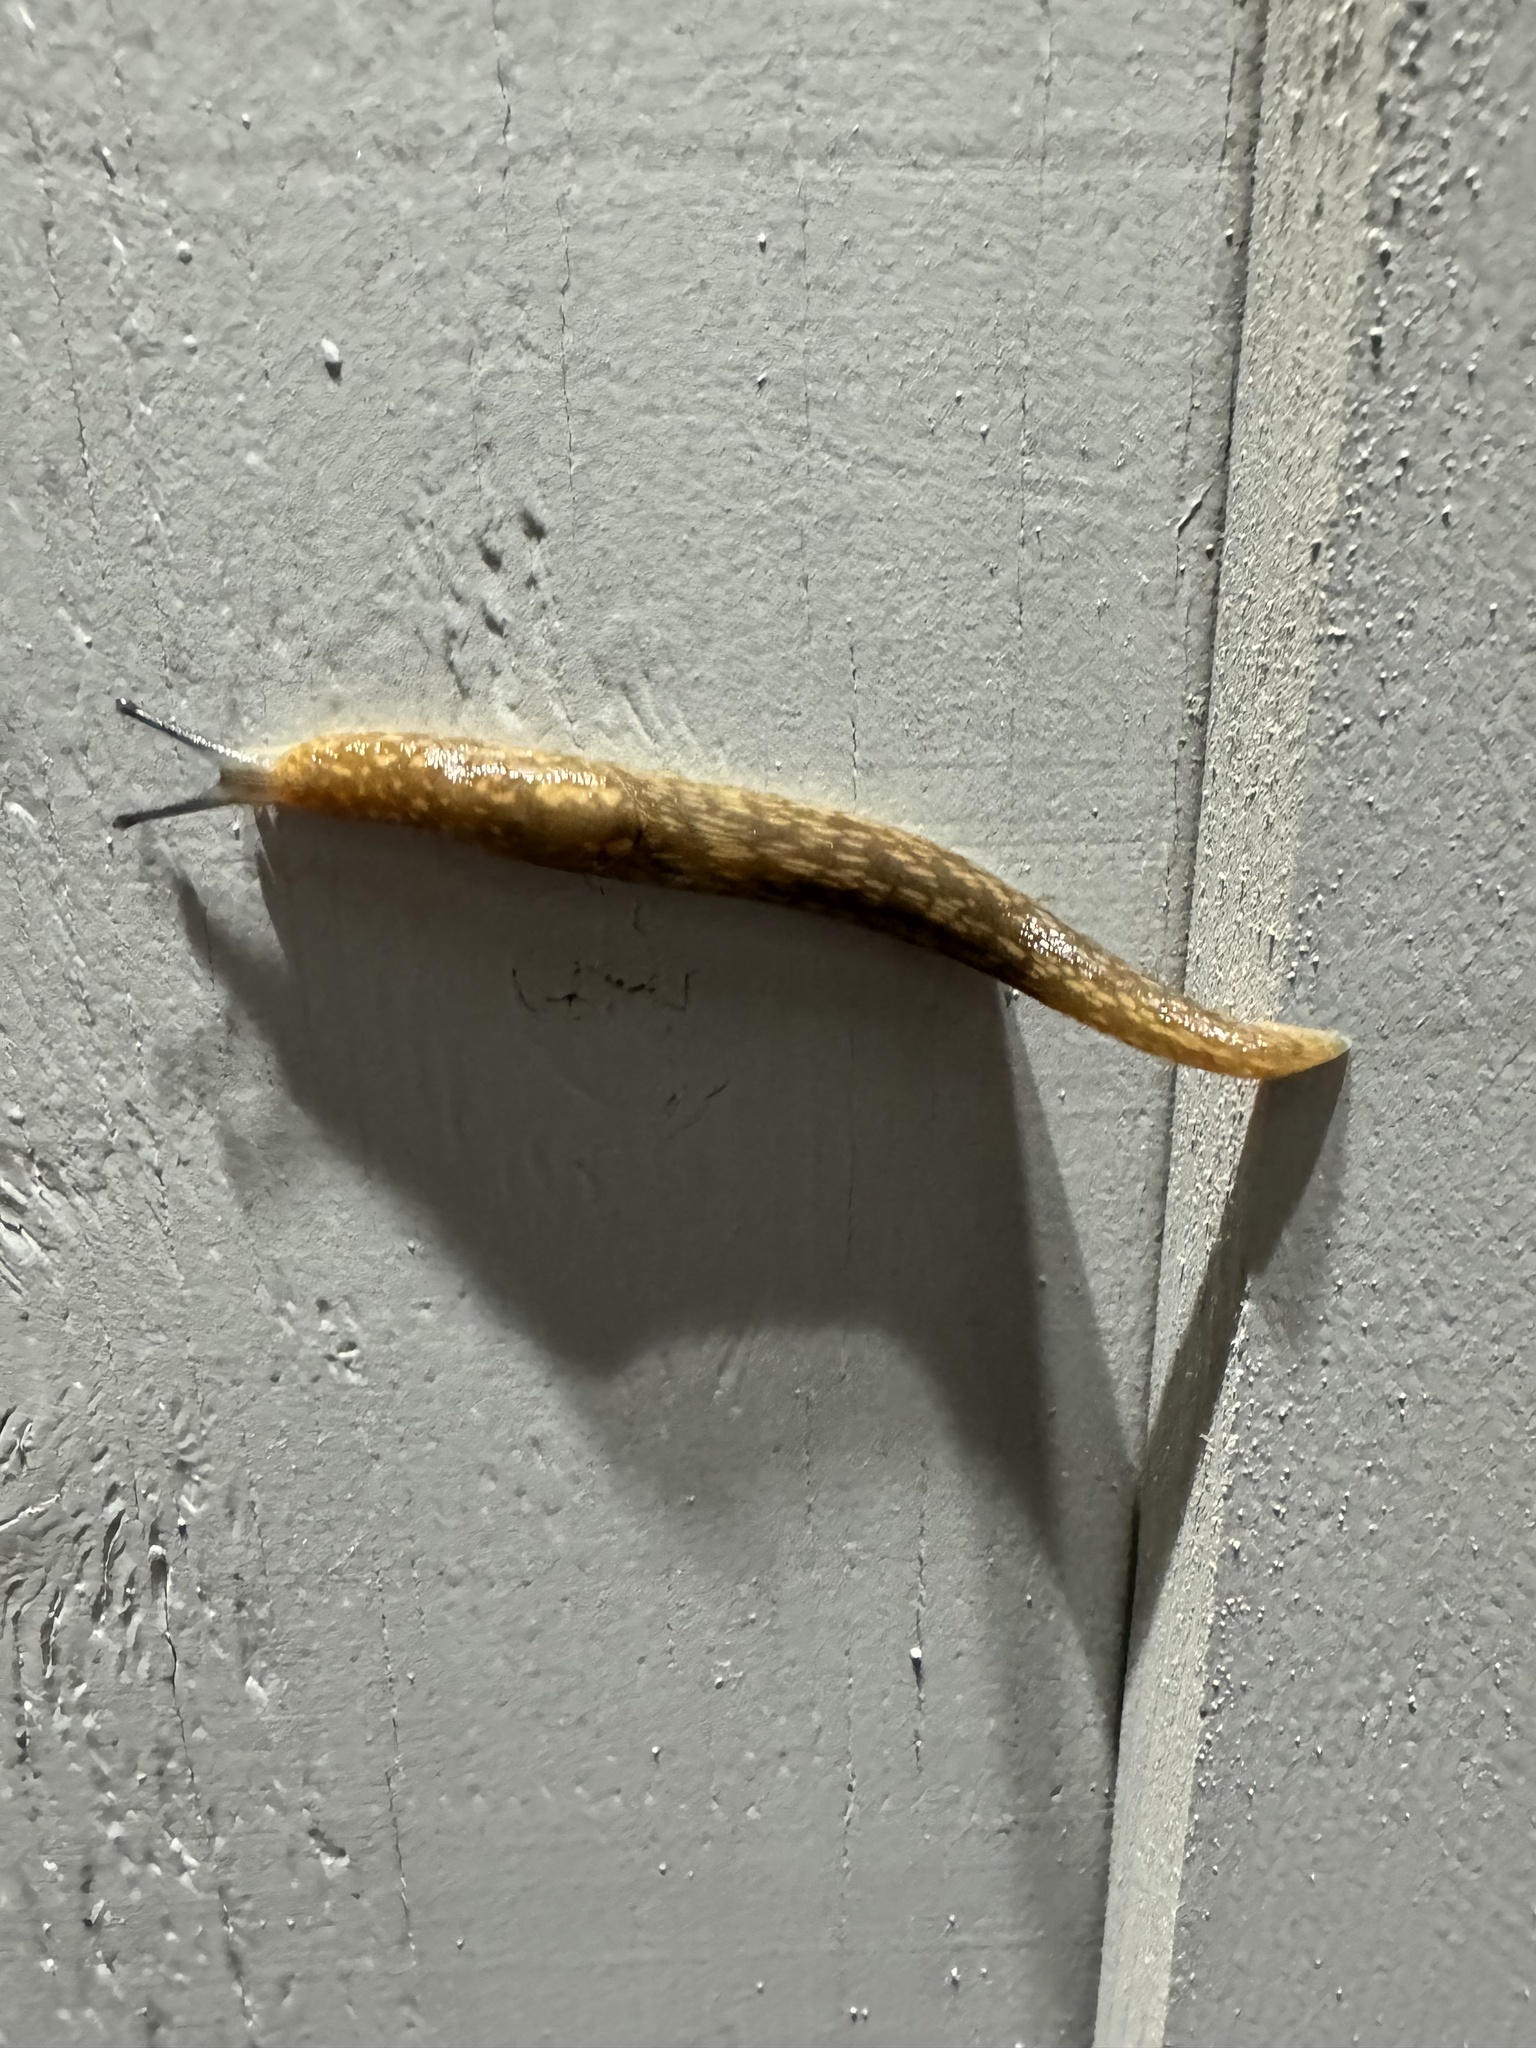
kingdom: Animalia
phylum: Mollusca
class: Gastropoda
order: Stylommatophora
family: Limacidae
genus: Limacus
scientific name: Limacus flavus
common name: Yellow gardenslug
